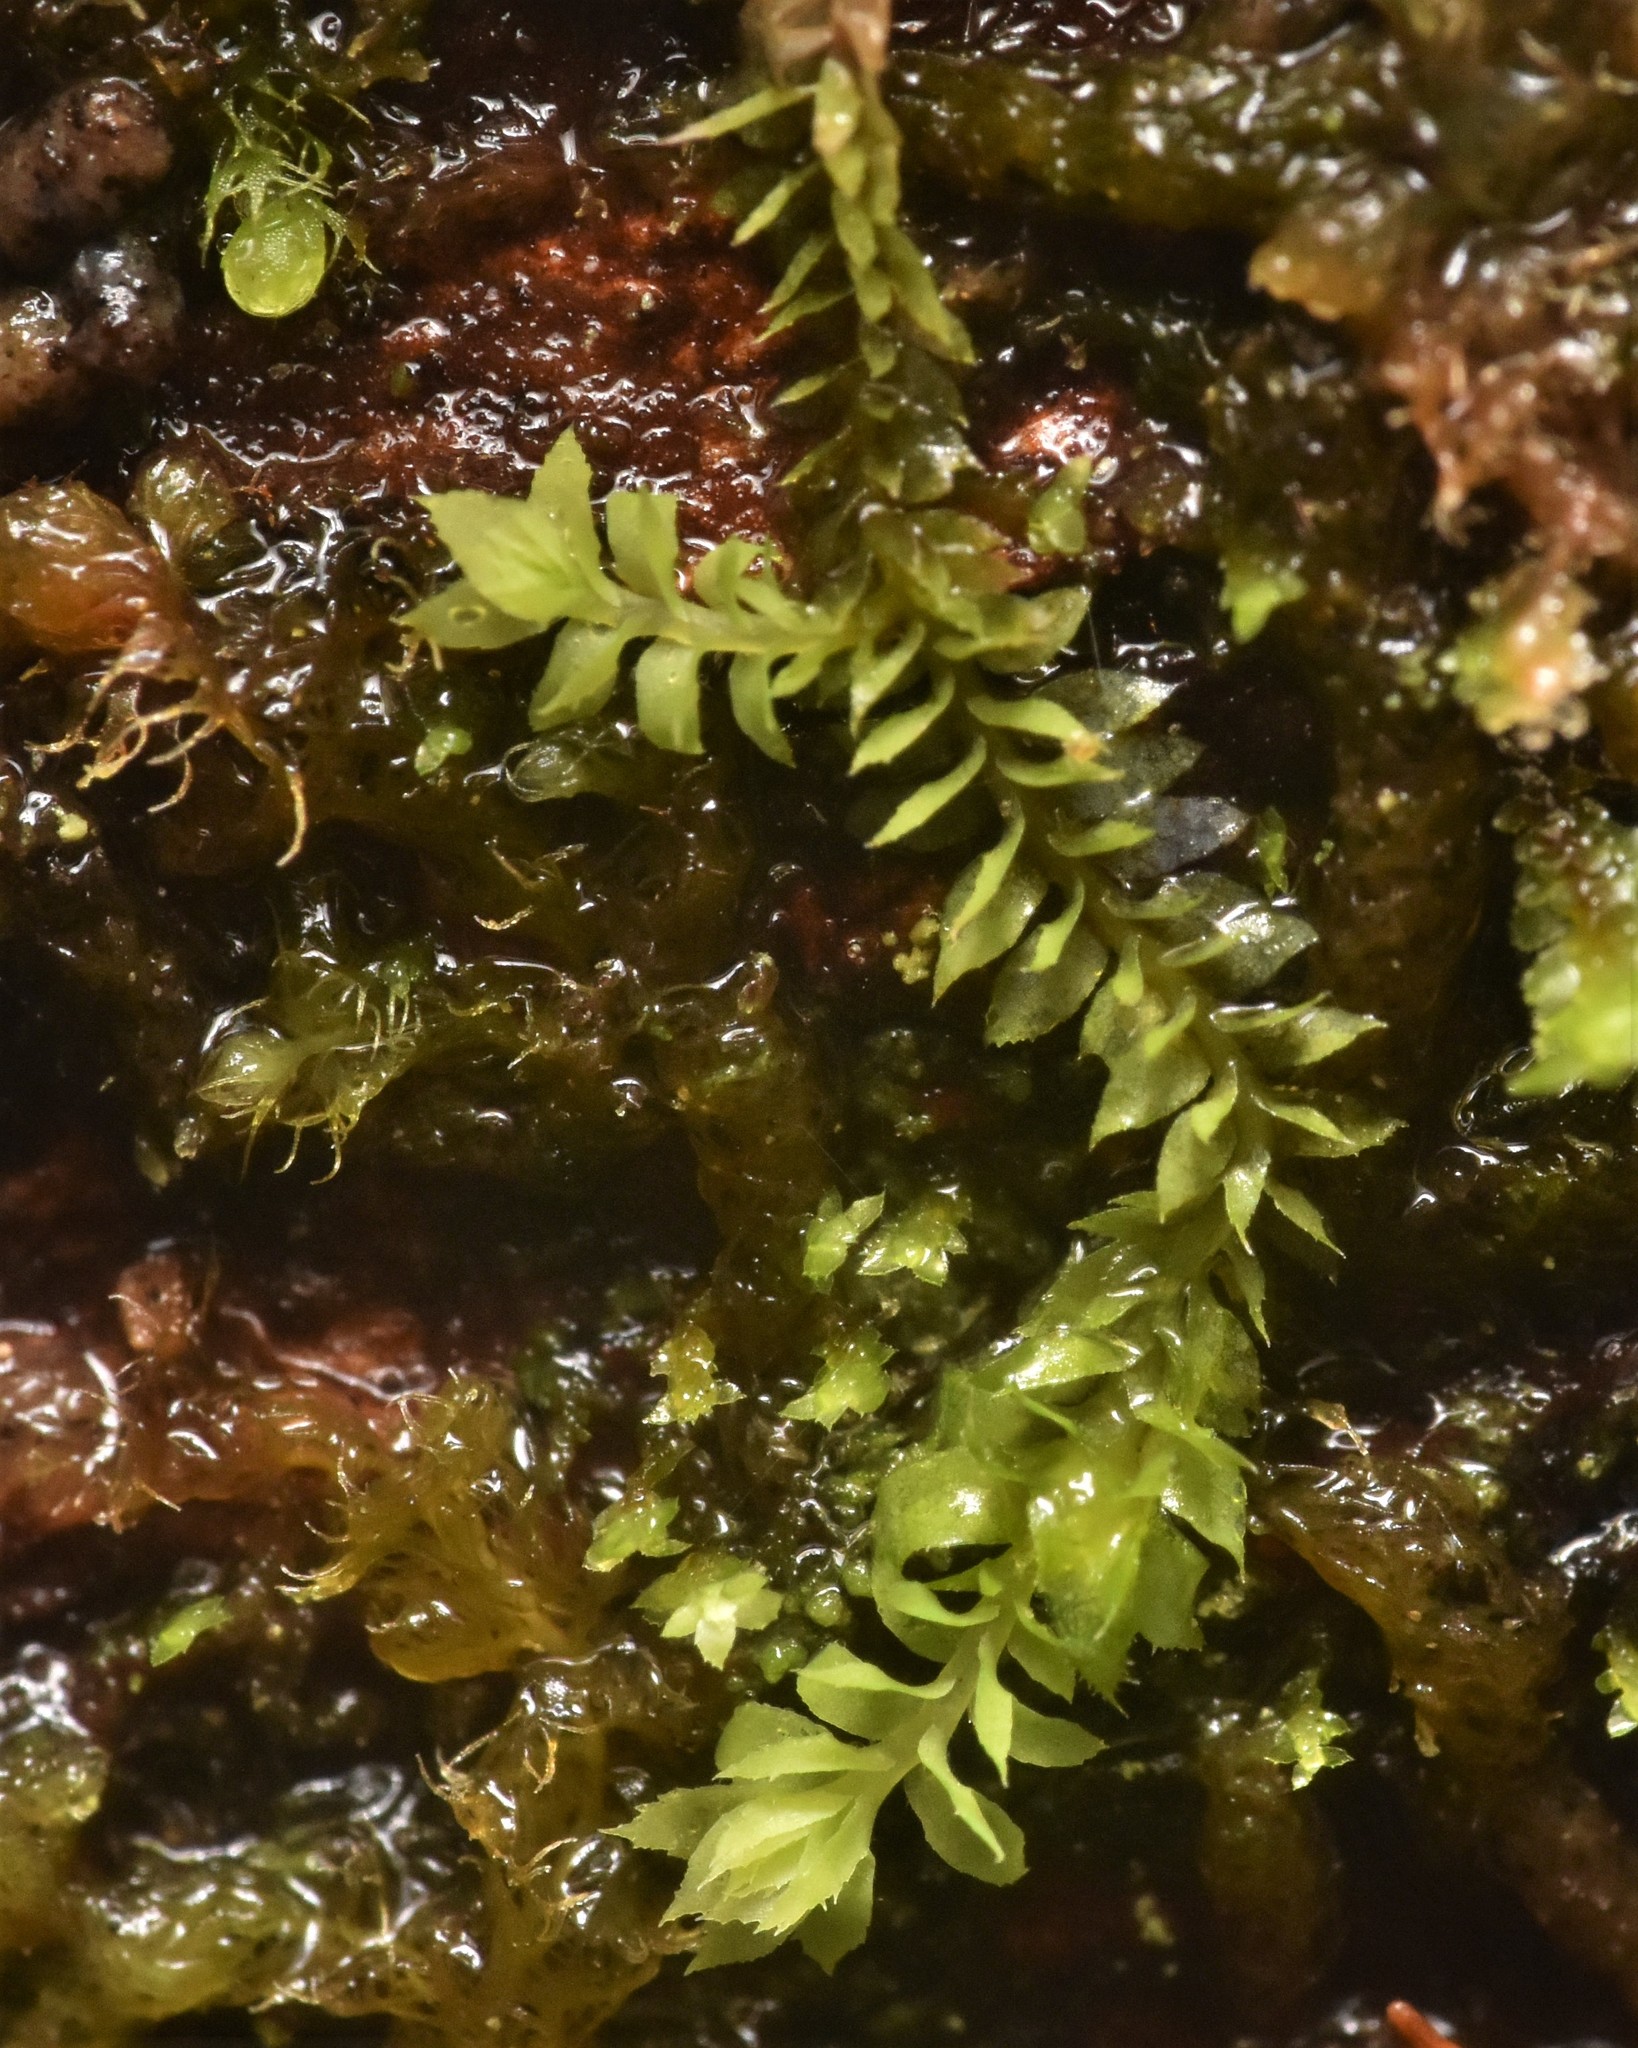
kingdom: Plantae
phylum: Marchantiophyta
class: Jungermanniopsida
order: Jungermanniales
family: Scapaniaceae
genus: Douinia
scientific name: Douinia ovata
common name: Waxy earwort
